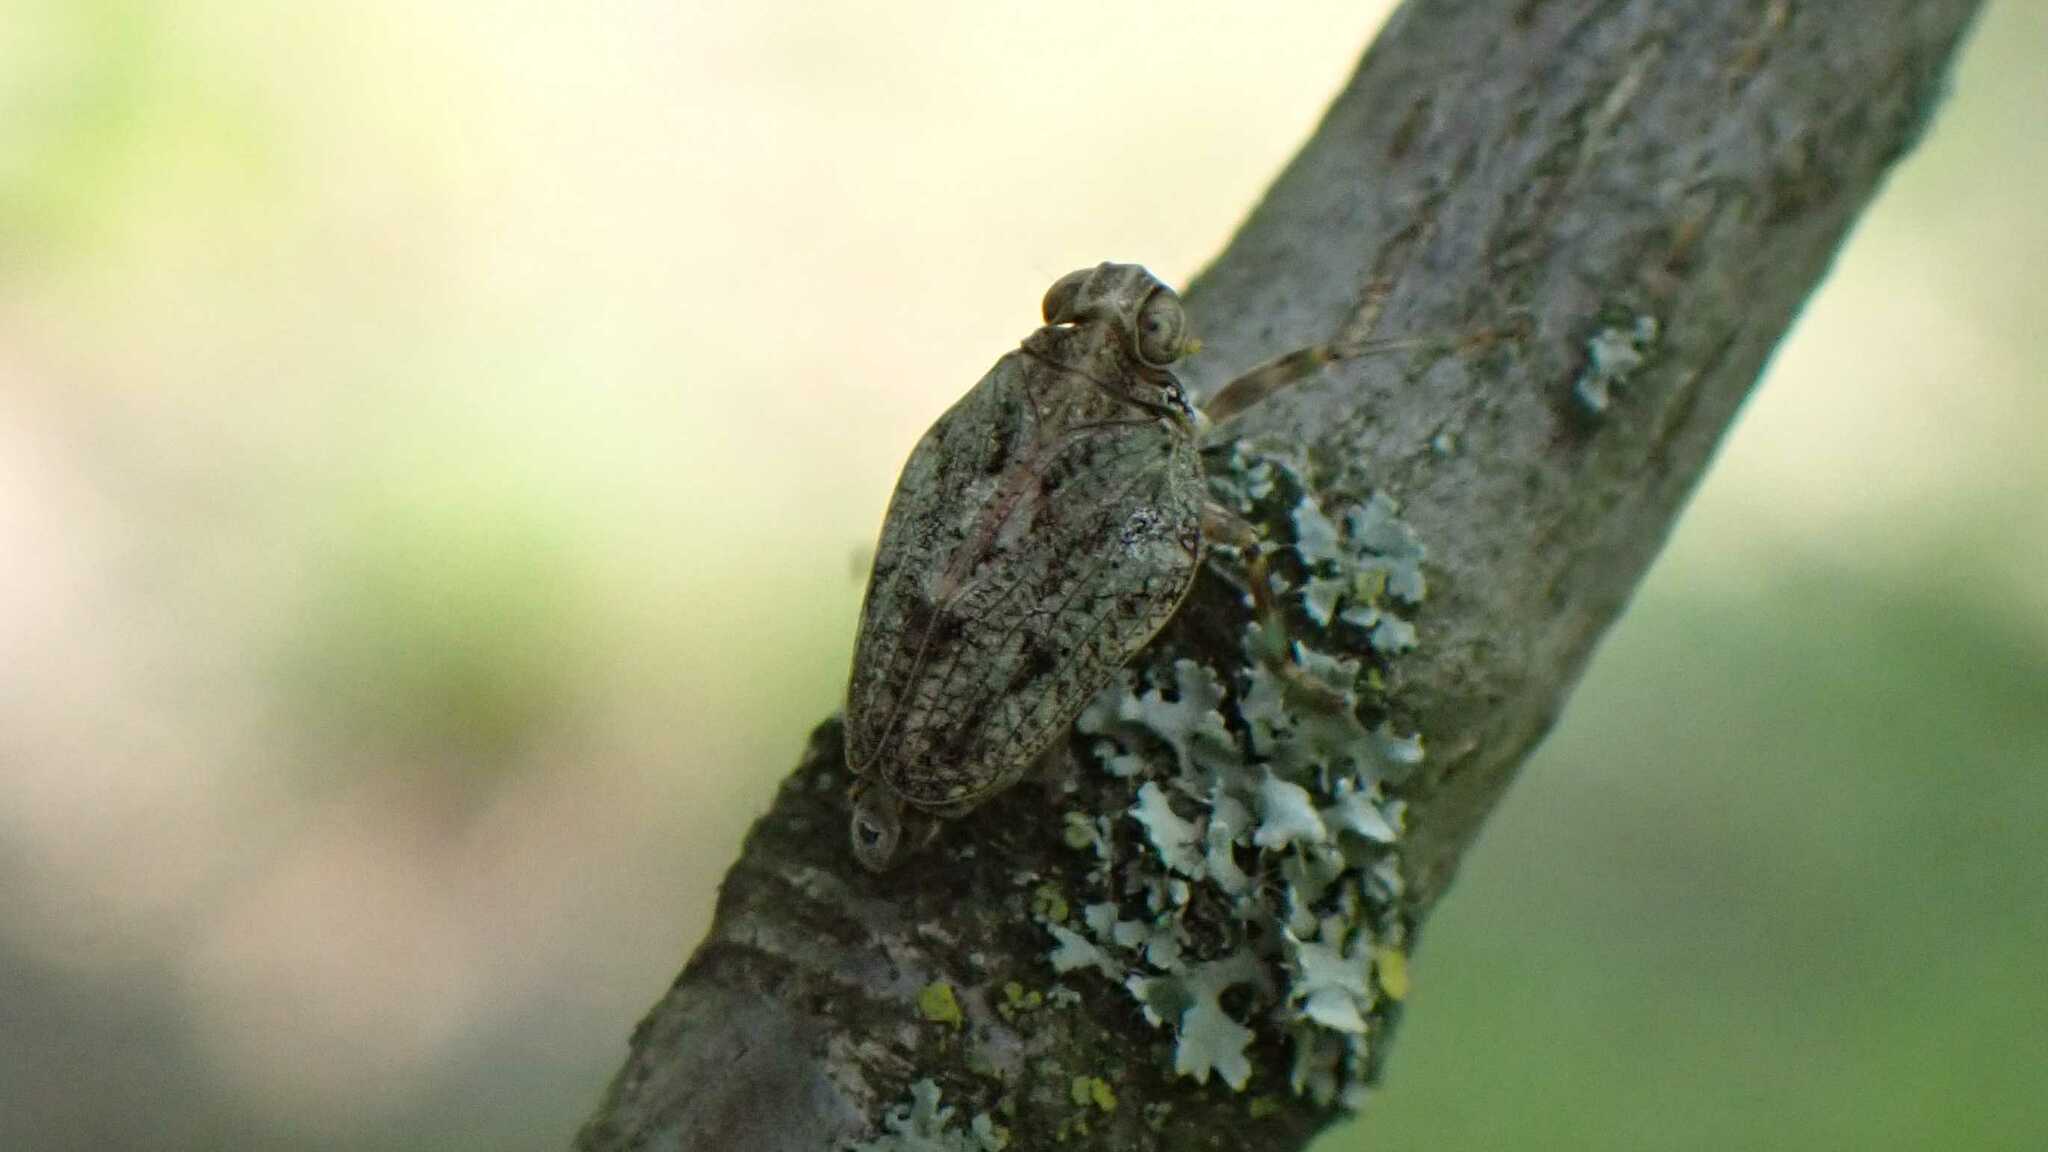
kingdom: Animalia
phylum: Arthropoda
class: Insecta
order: Hemiptera
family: Issidae
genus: Issus
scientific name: Issus coleoptratus
